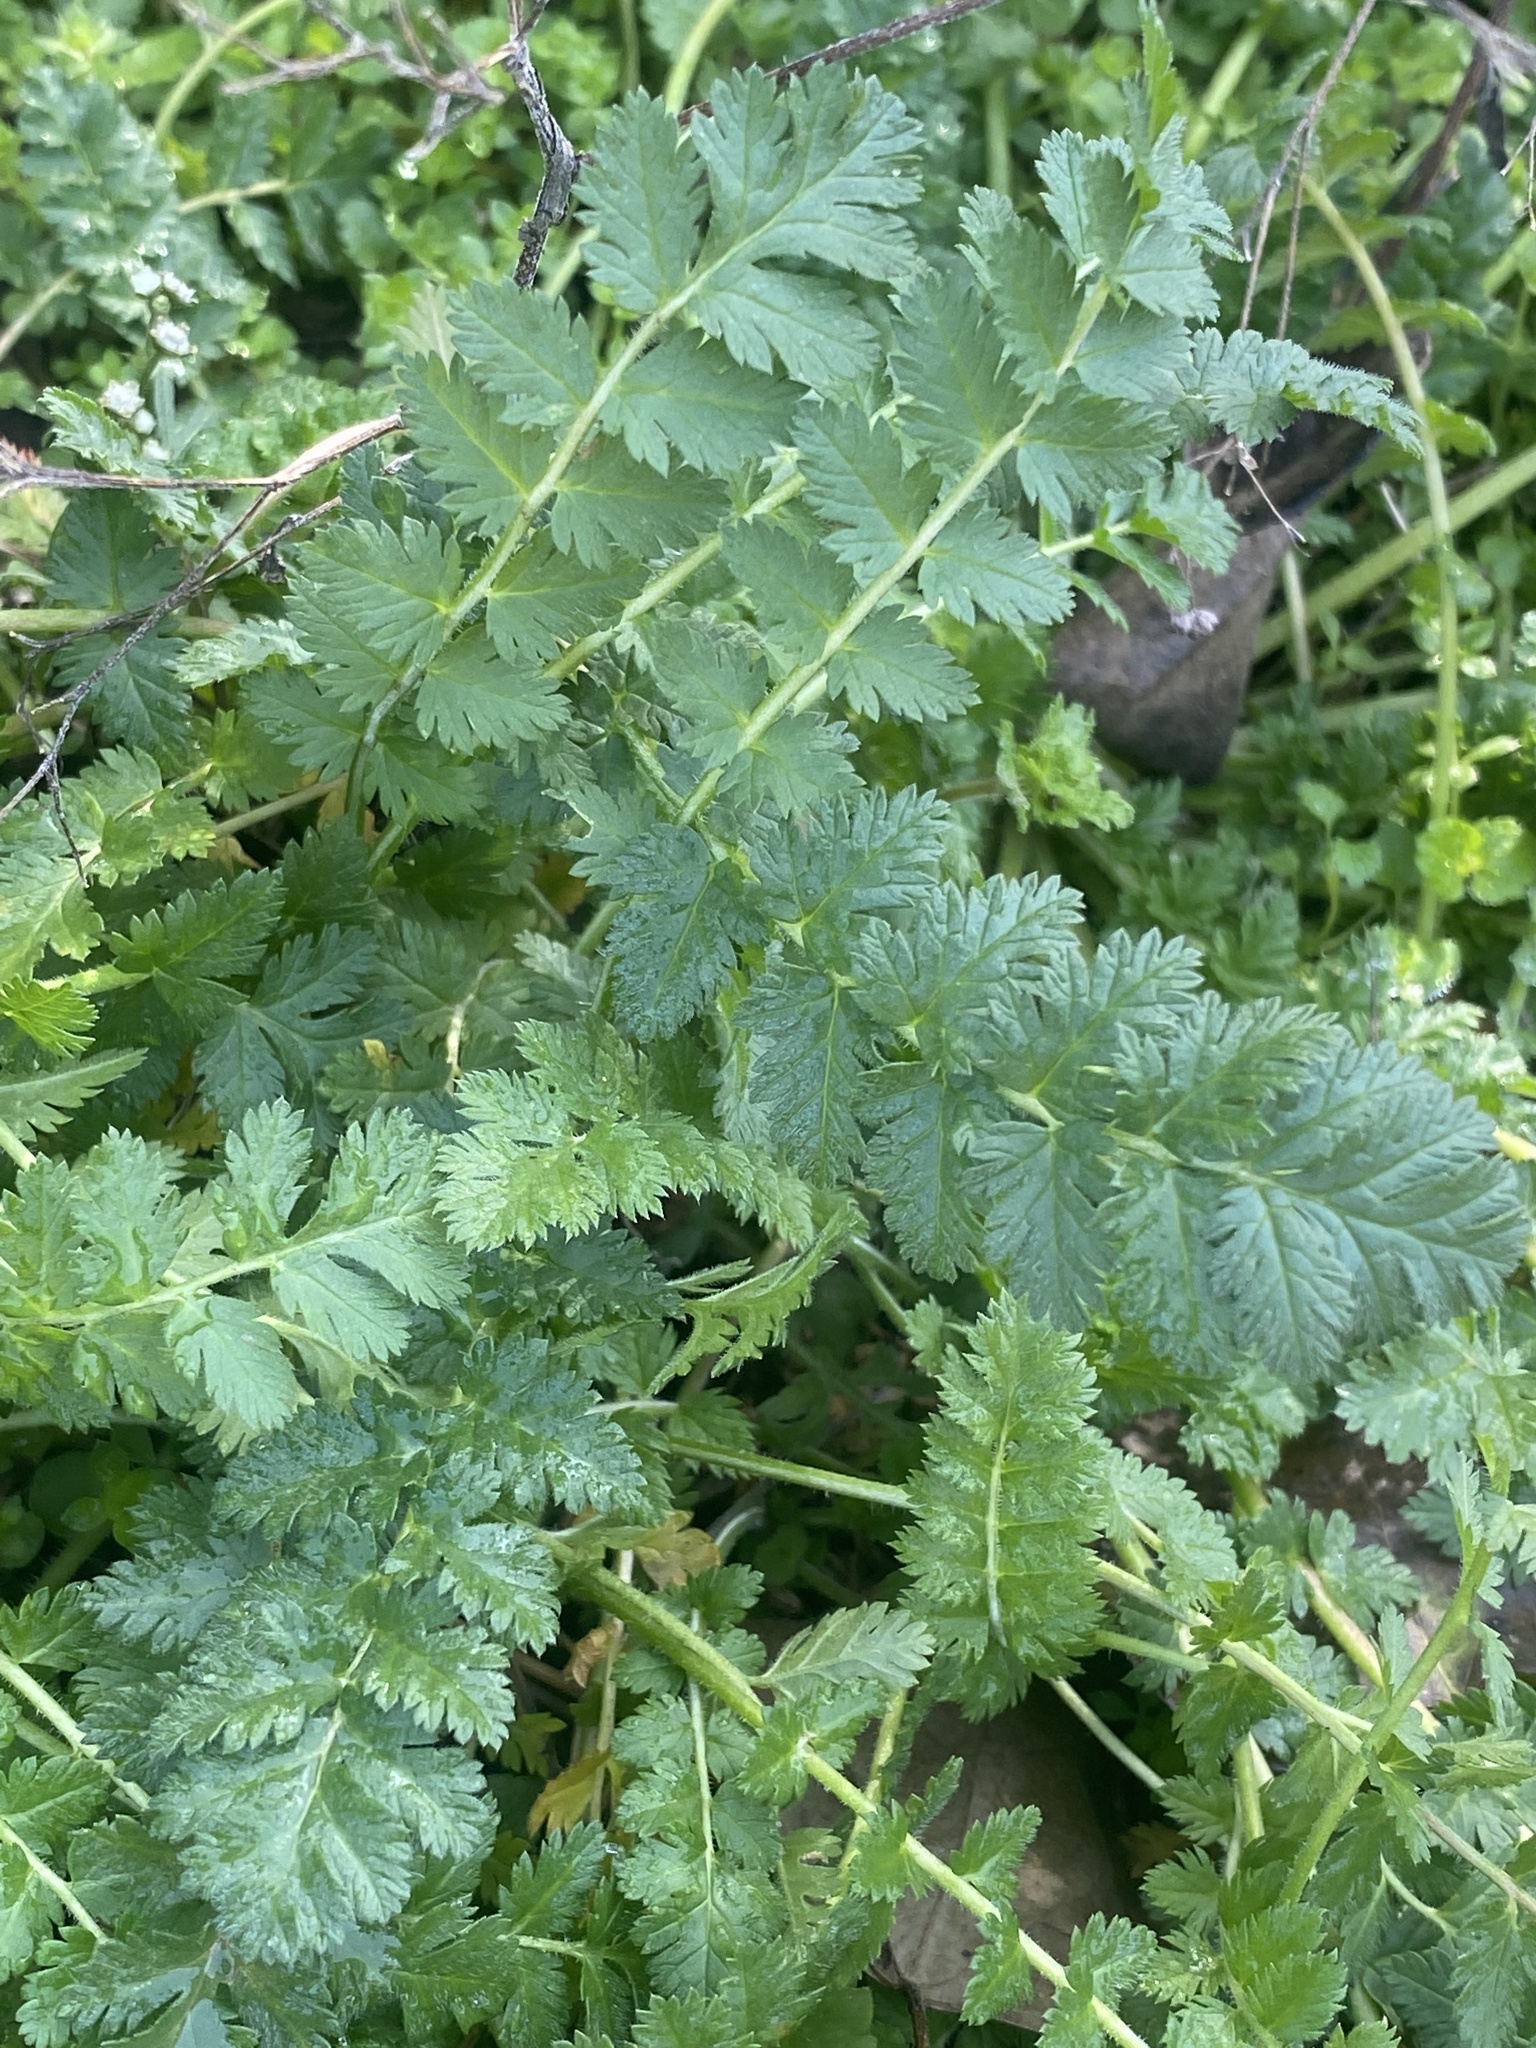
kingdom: Plantae
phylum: Tracheophyta
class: Magnoliopsida
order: Geraniales
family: Geraniaceae
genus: Erodium
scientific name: Erodium cicutarium
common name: Common stork's-bill
